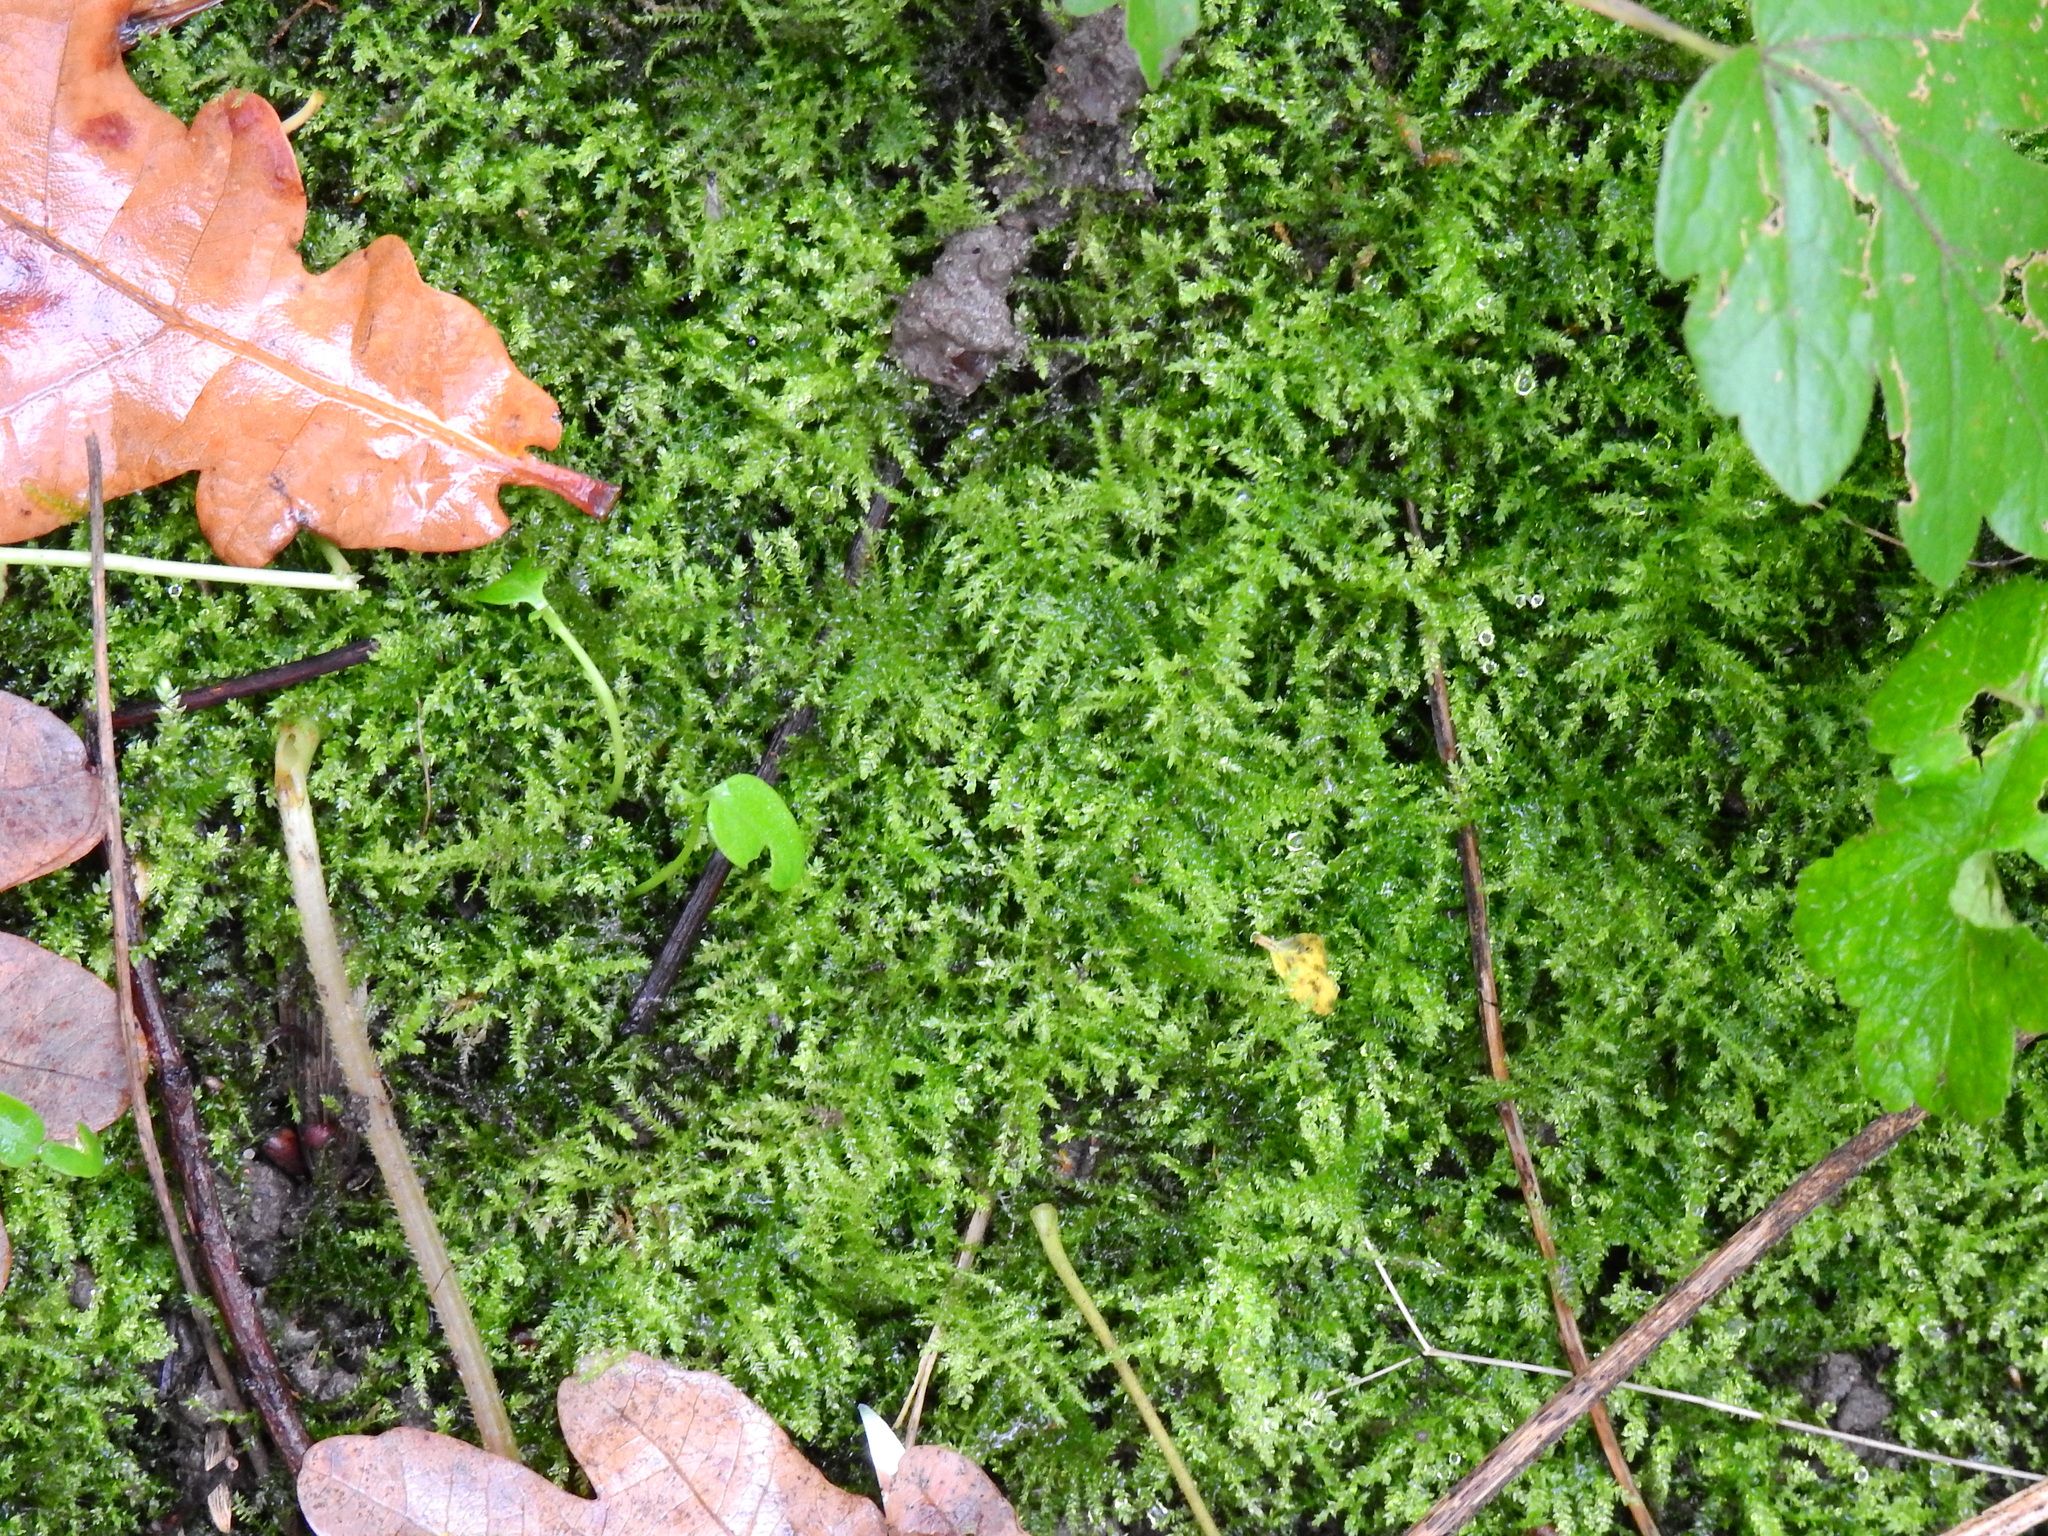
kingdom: Plantae
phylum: Bryophyta
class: Bryopsida
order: Hypnales
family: Brachytheciaceae
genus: Kindbergia
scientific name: Kindbergia praelonga
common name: Slender beaked moss
